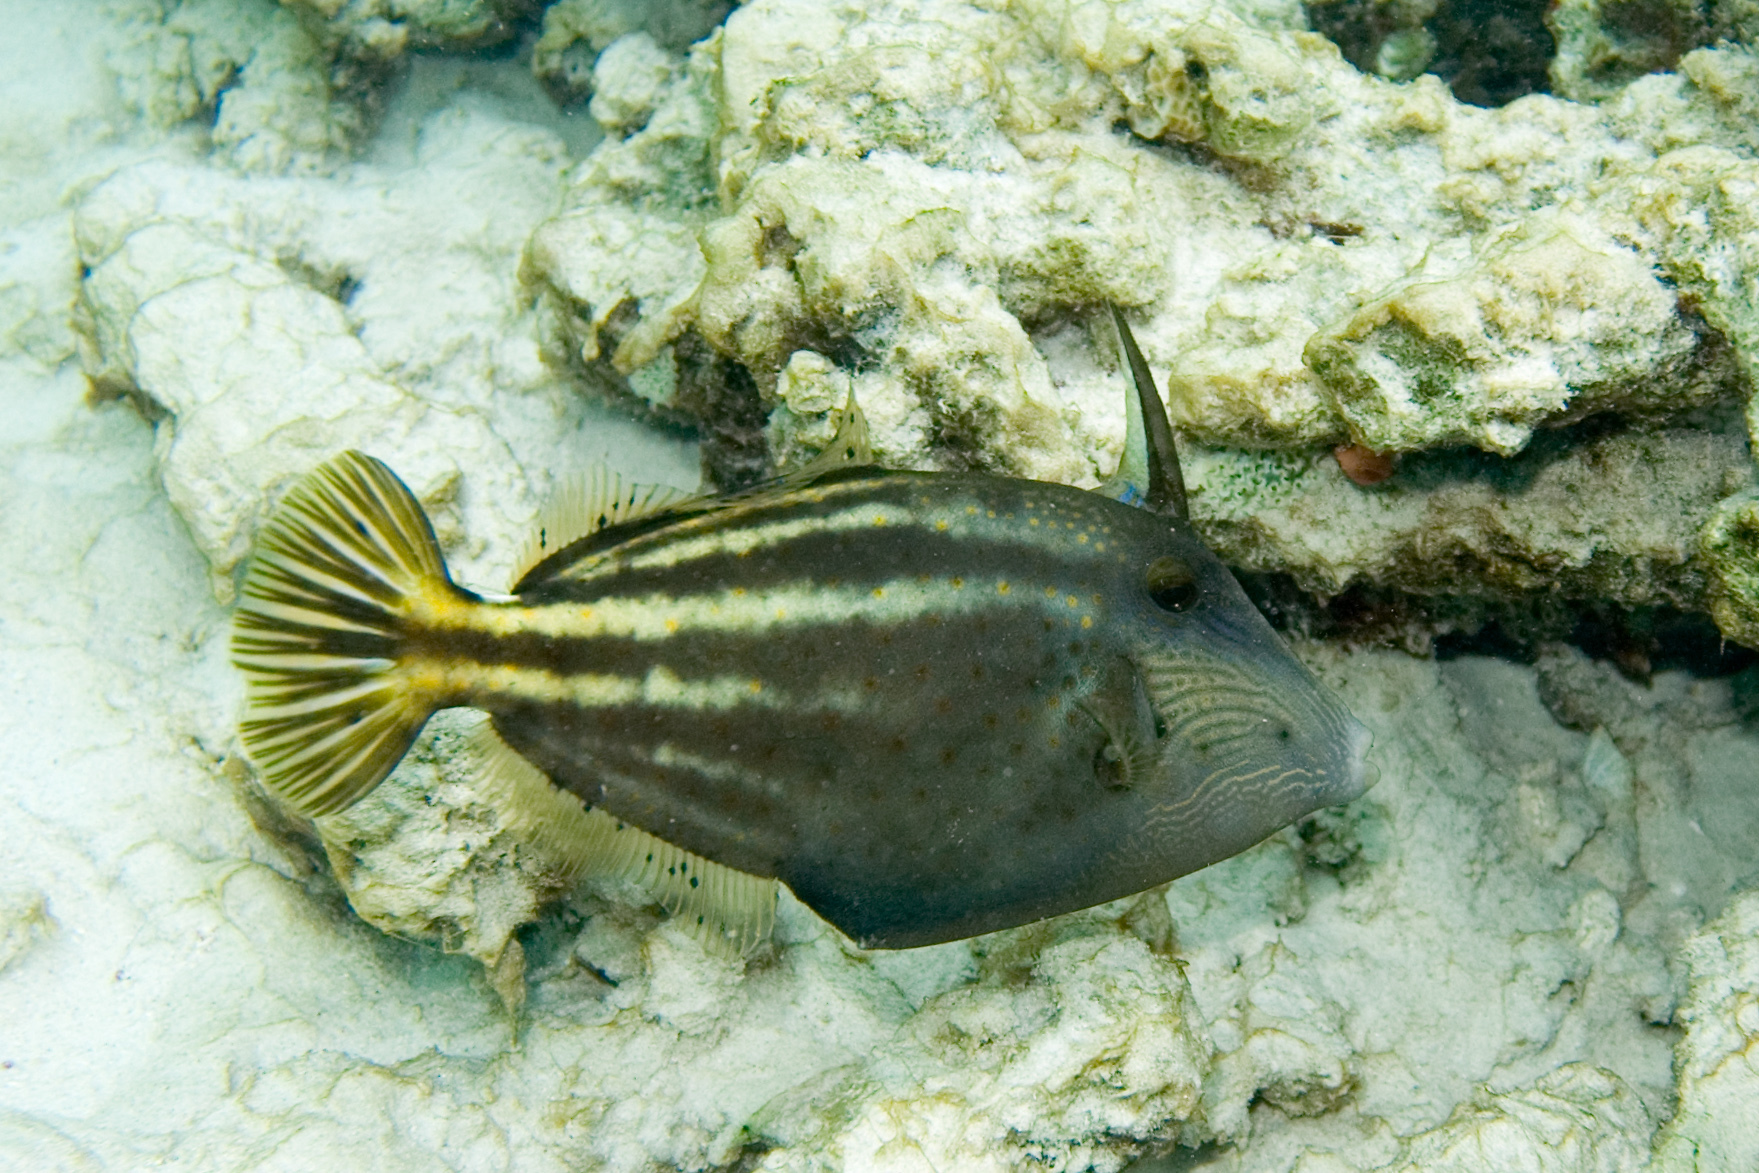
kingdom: Animalia
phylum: Chordata
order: Tetraodontiformes
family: Monacanthidae
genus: Cantherhines
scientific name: Cantherhines pullus
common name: Orangespotted filefish
